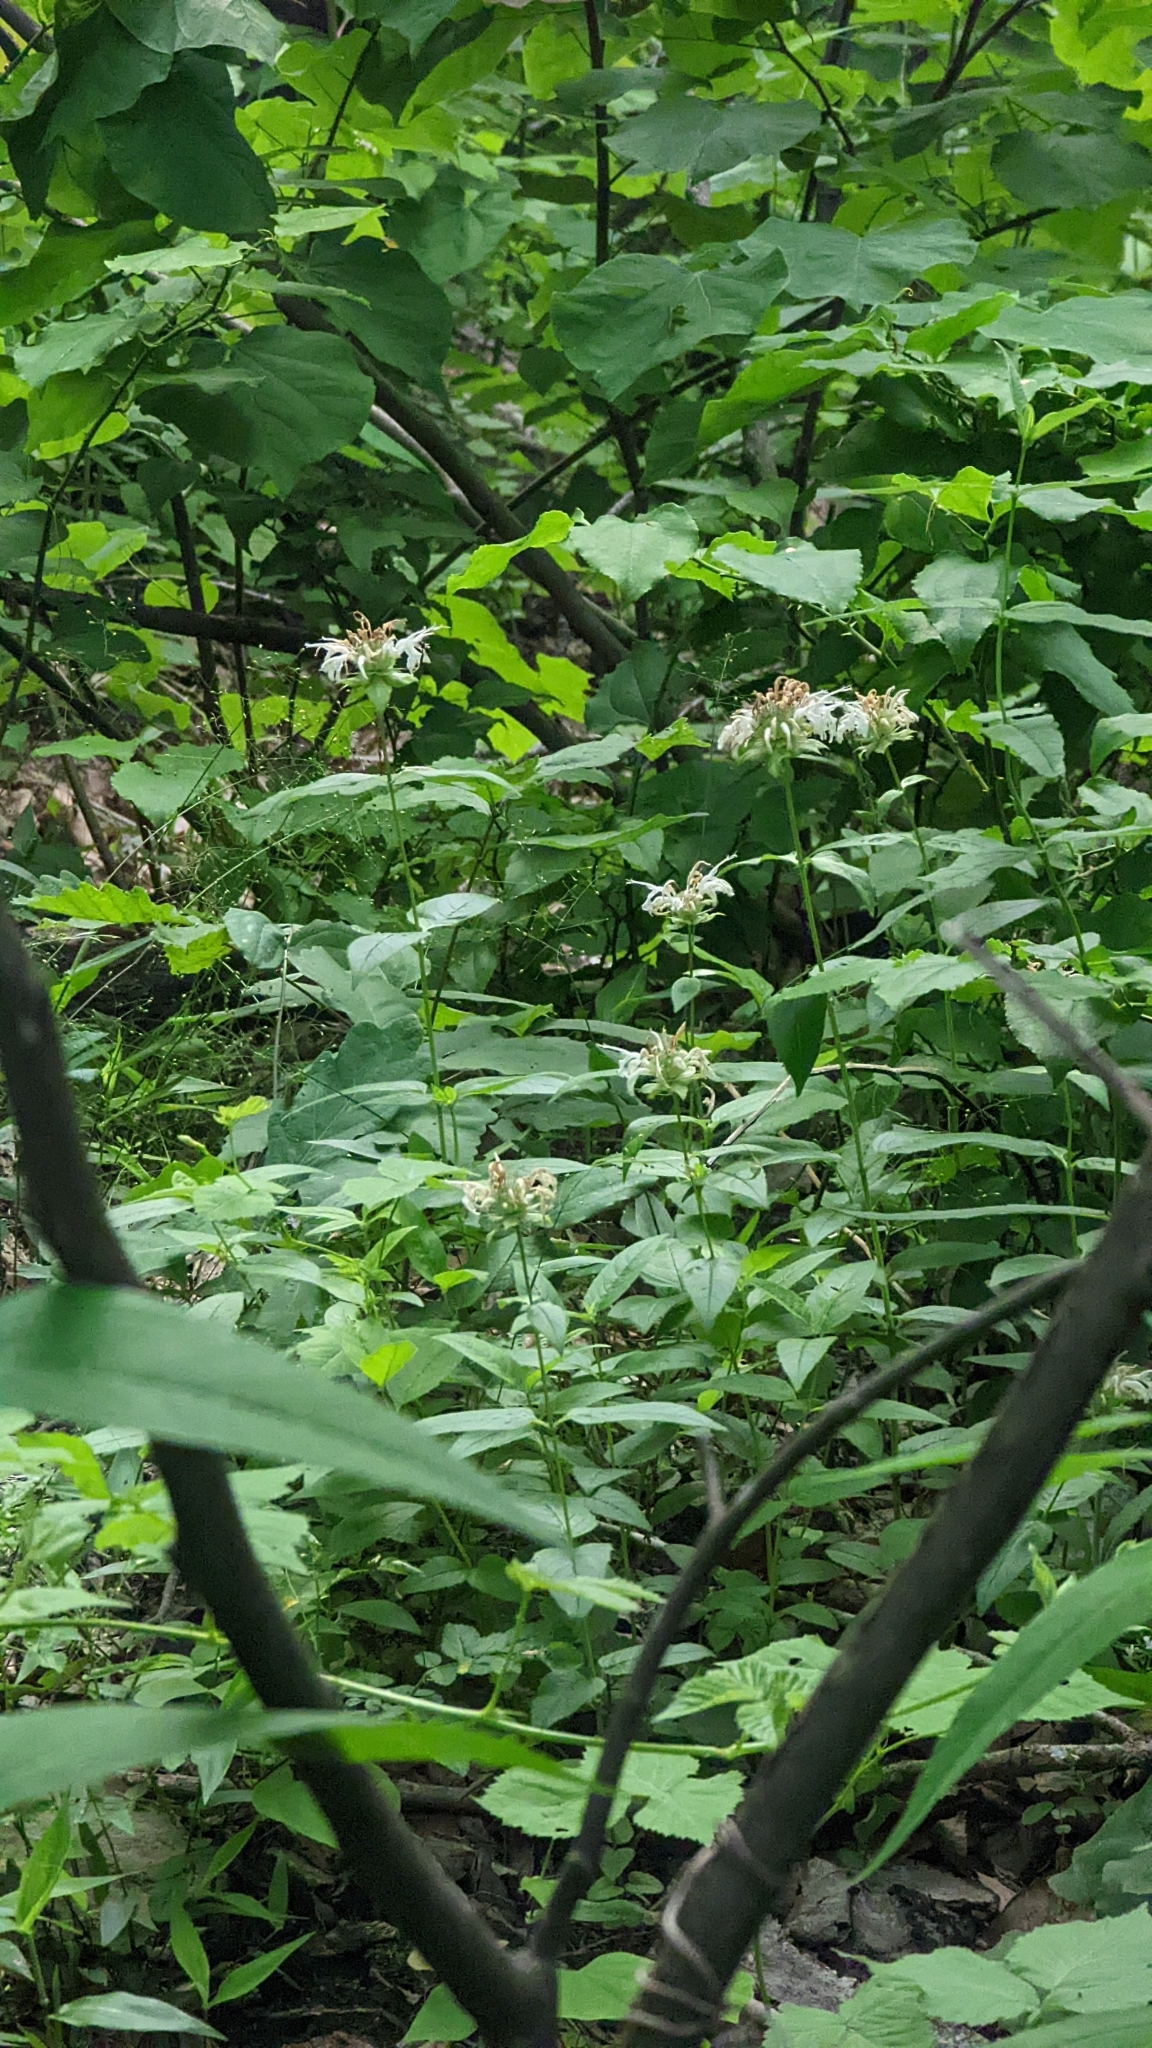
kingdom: Plantae
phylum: Tracheophyta
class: Magnoliopsida
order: Lamiales
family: Lamiaceae
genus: Monarda
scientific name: Monarda clinopodia
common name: Basil beebalm
